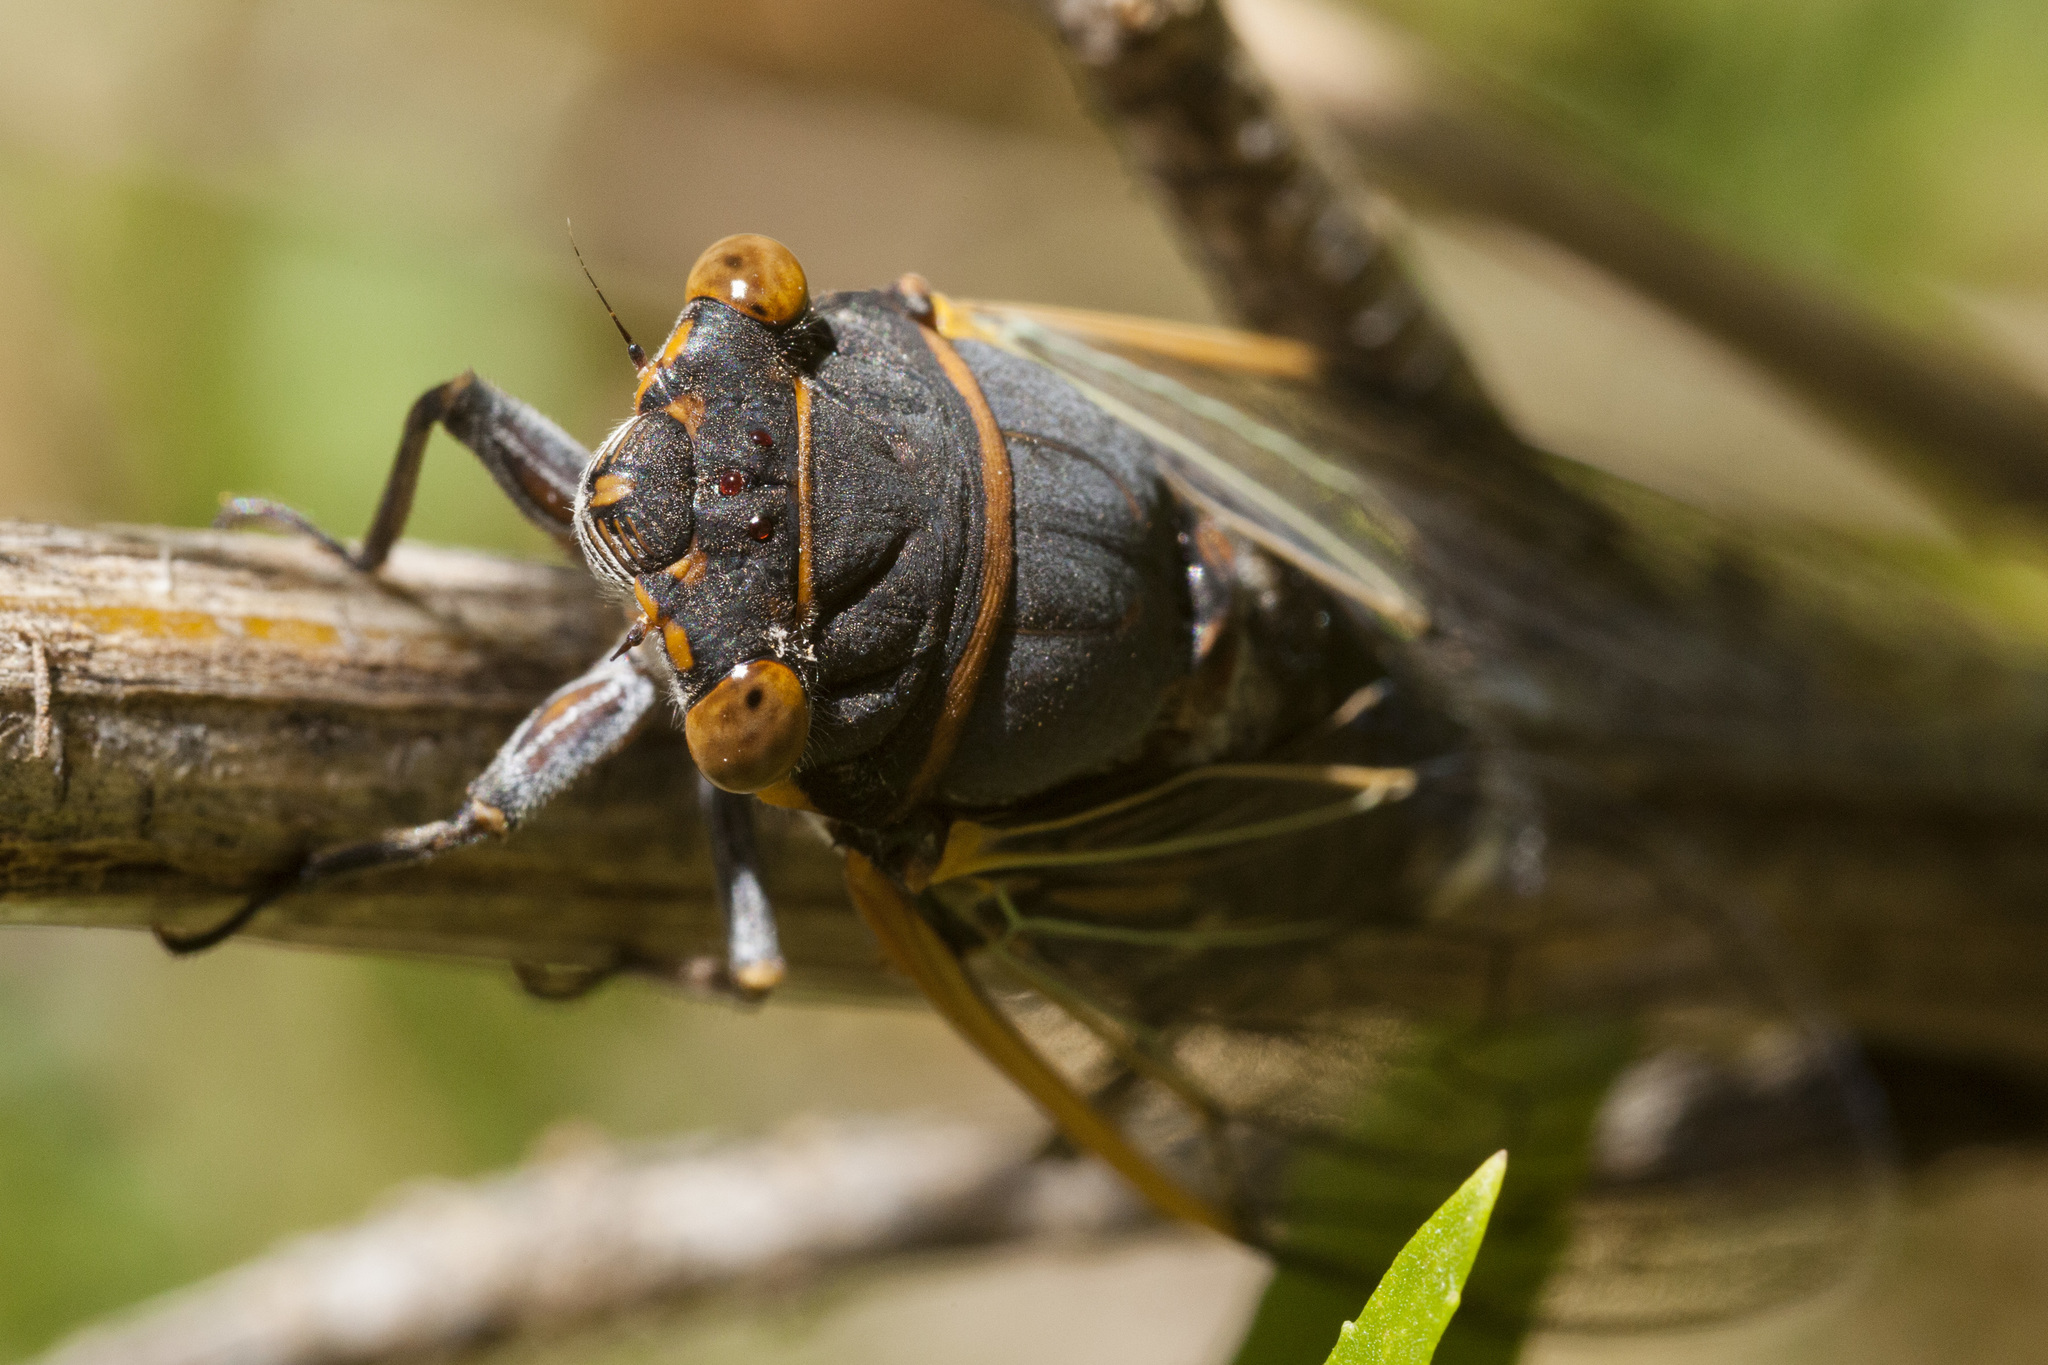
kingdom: Animalia
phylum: Arthropoda
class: Insecta
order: Hemiptera
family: Cicadidae
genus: Diceroprocta
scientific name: Diceroprocta cinctifera
